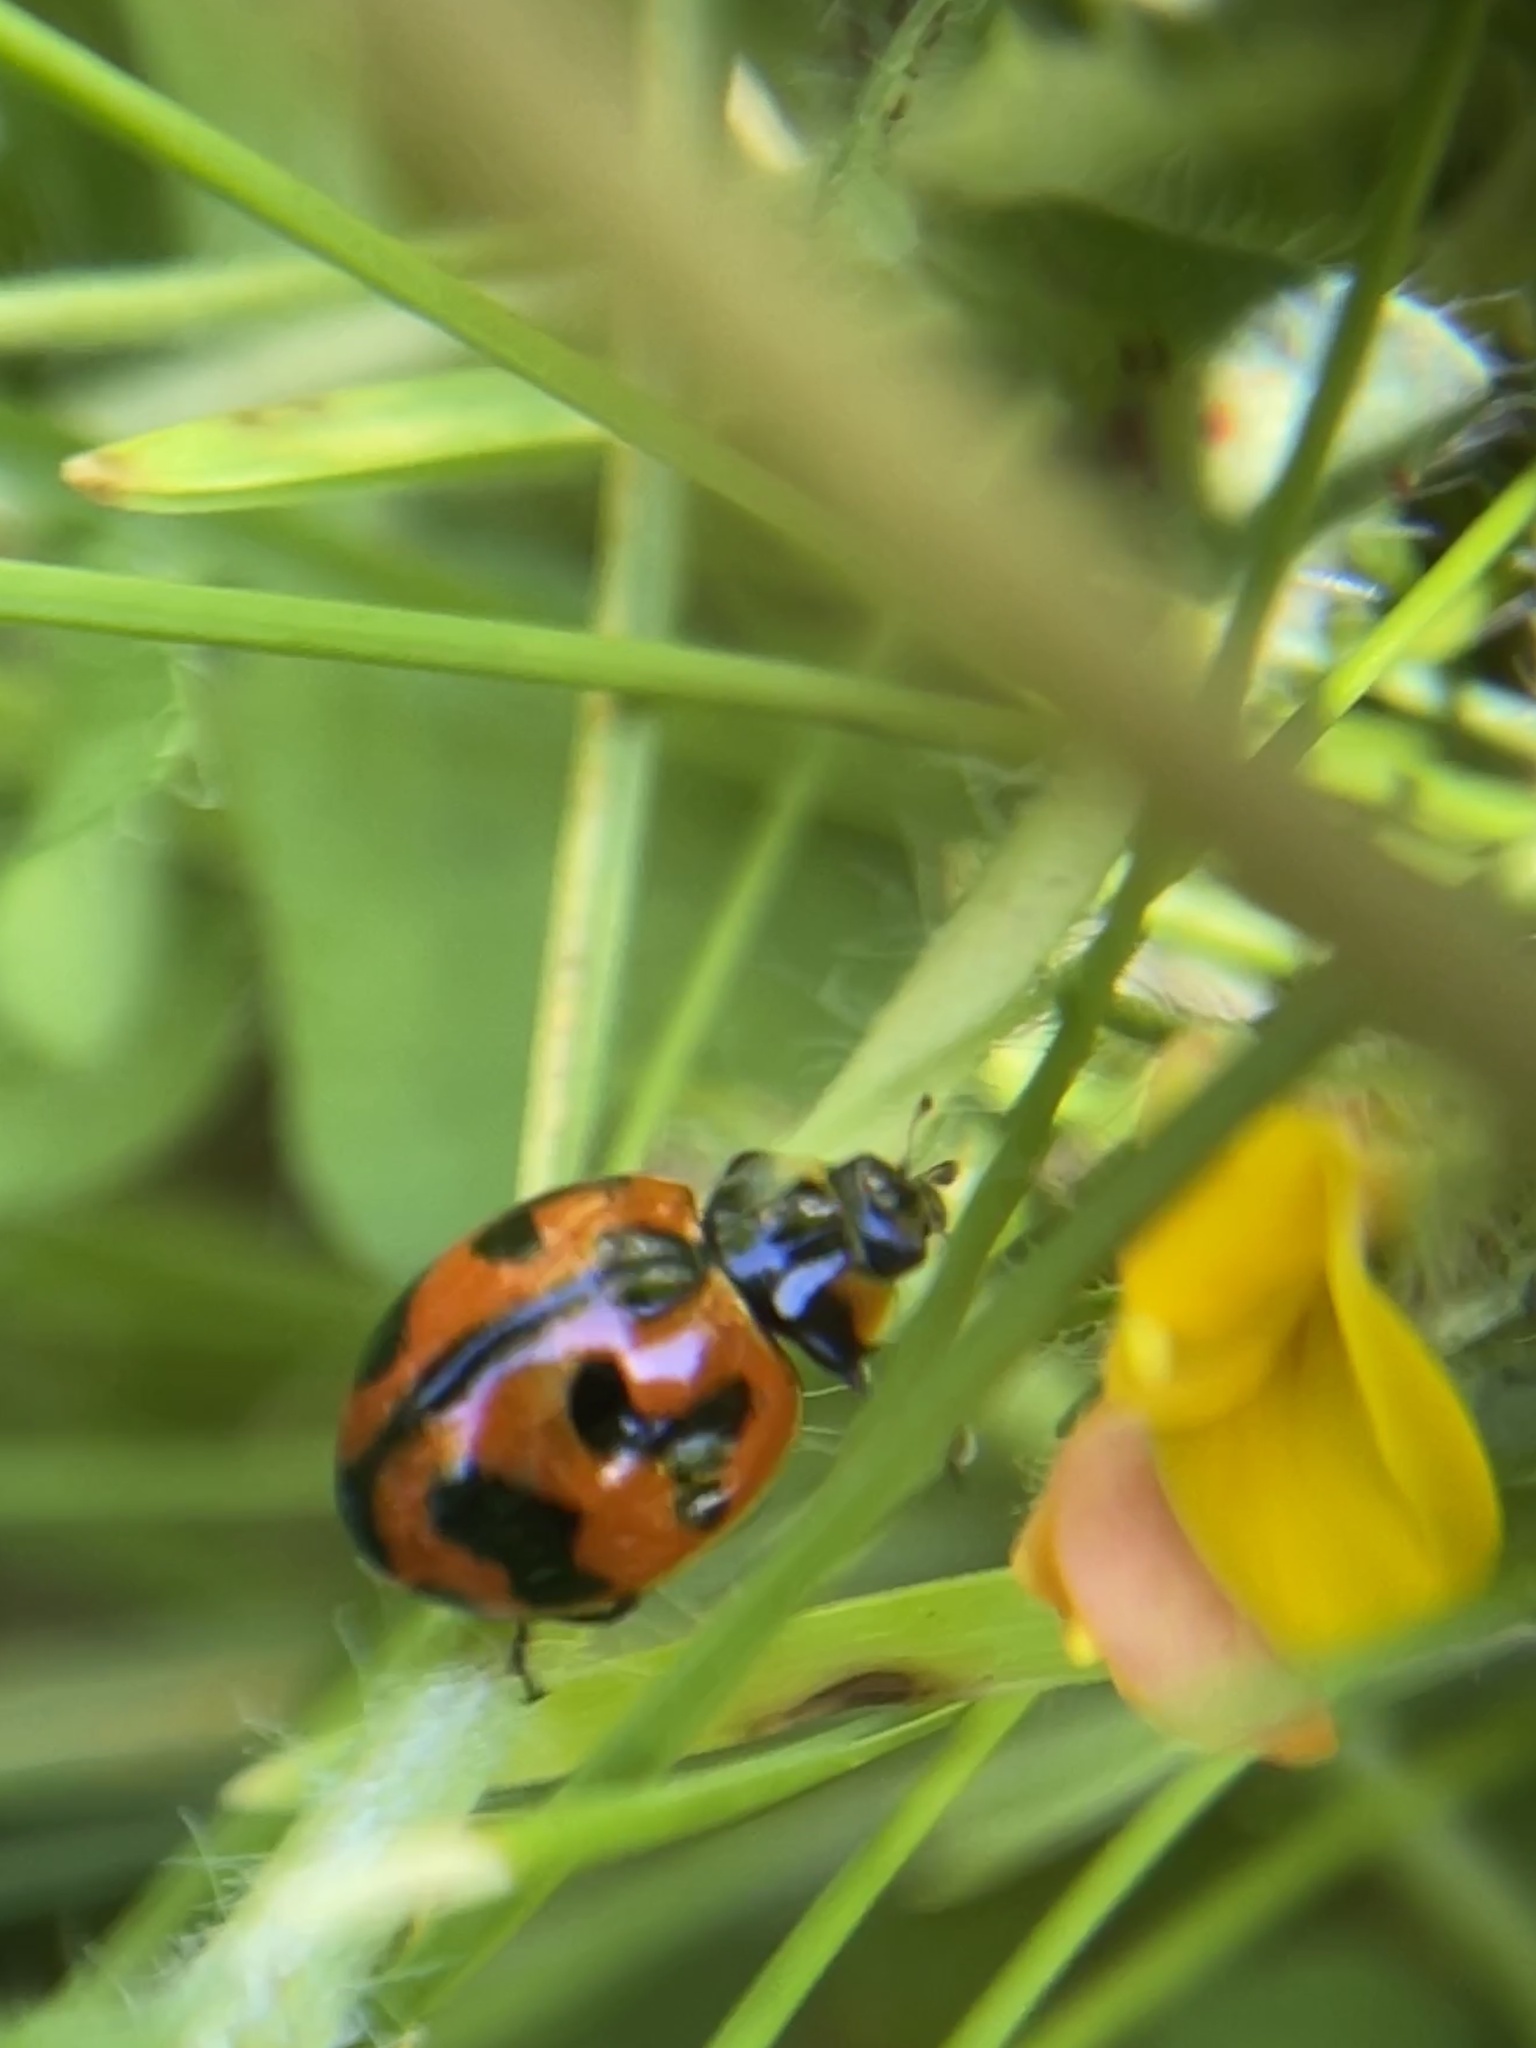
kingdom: Animalia
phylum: Arthropoda
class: Insecta
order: Coleoptera
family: Coccinellidae
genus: Coccinella
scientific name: Coccinella transversalis
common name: Transverse lady beetle
